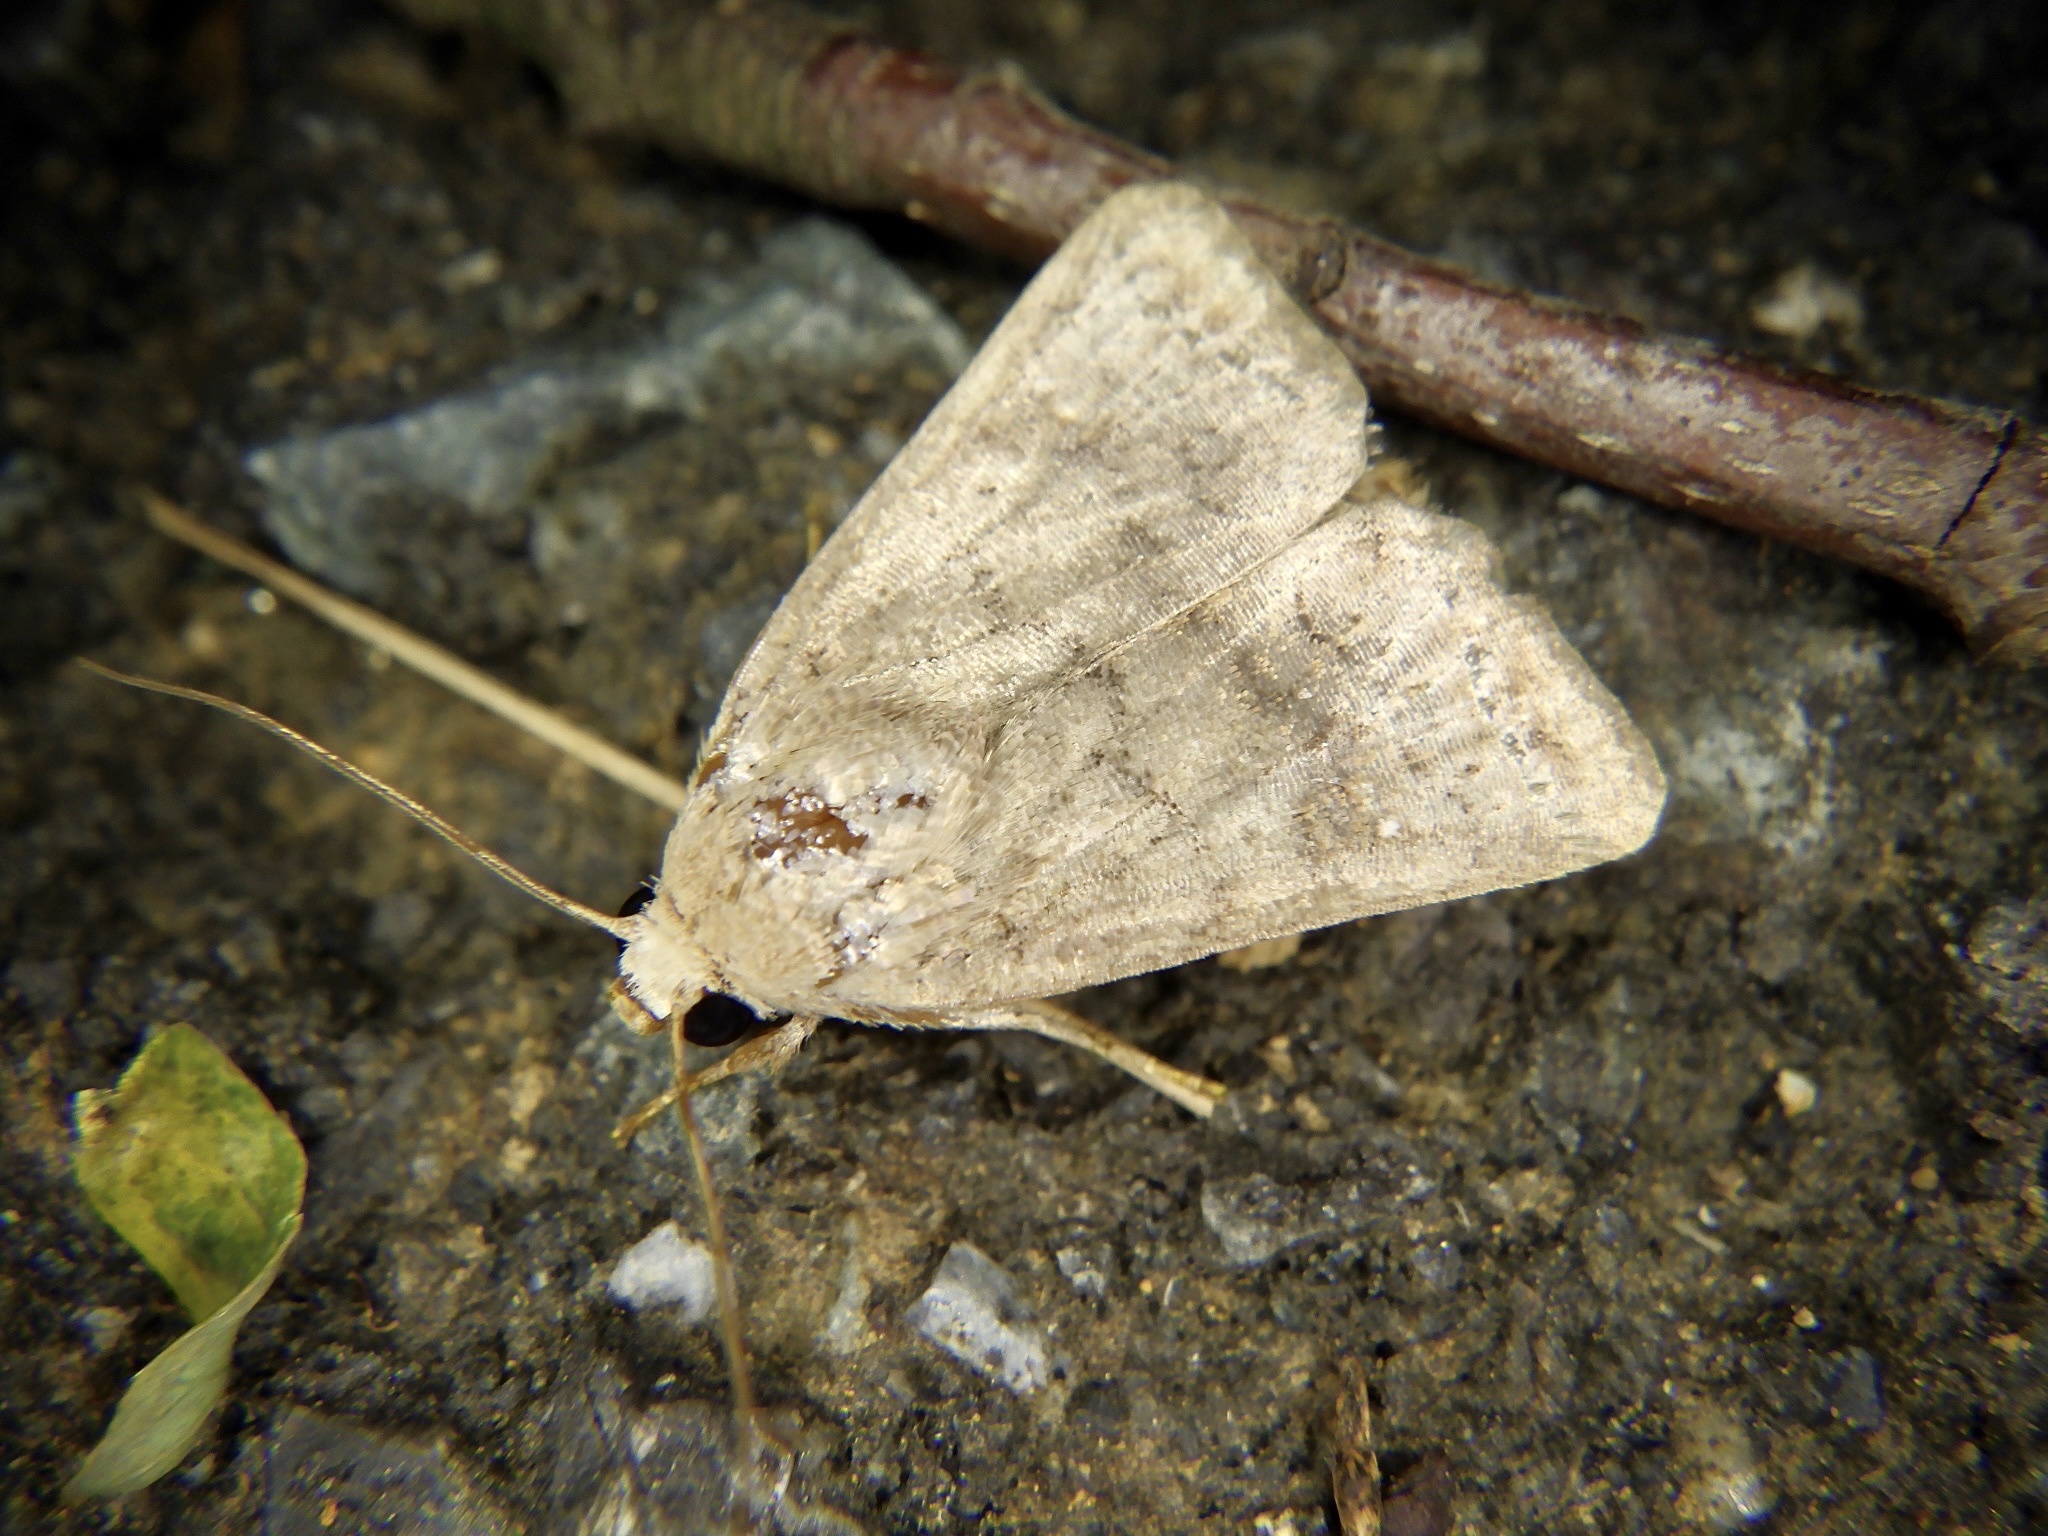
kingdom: Animalia
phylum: Arthropoda
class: Insecta
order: Lepidoptera
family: Noctuidae
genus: Athetis
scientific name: Athetis stellata
